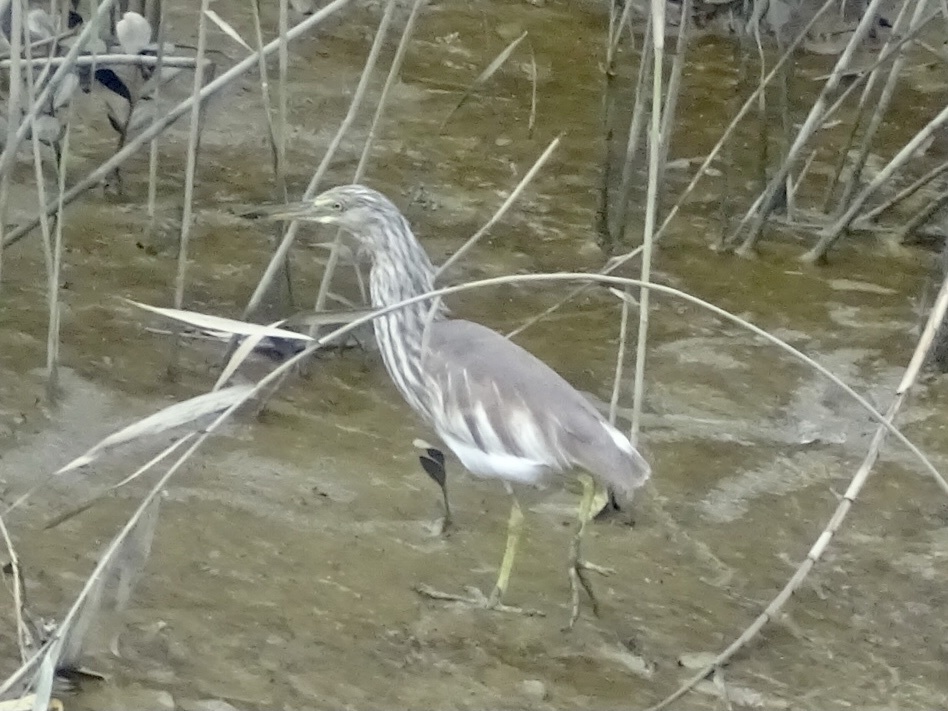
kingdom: Animalia
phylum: Chordata
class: Aves
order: Pelecaniformes
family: Ardeidae
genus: Ardeola
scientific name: Ardeola bacchus
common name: Chinese pond heron
